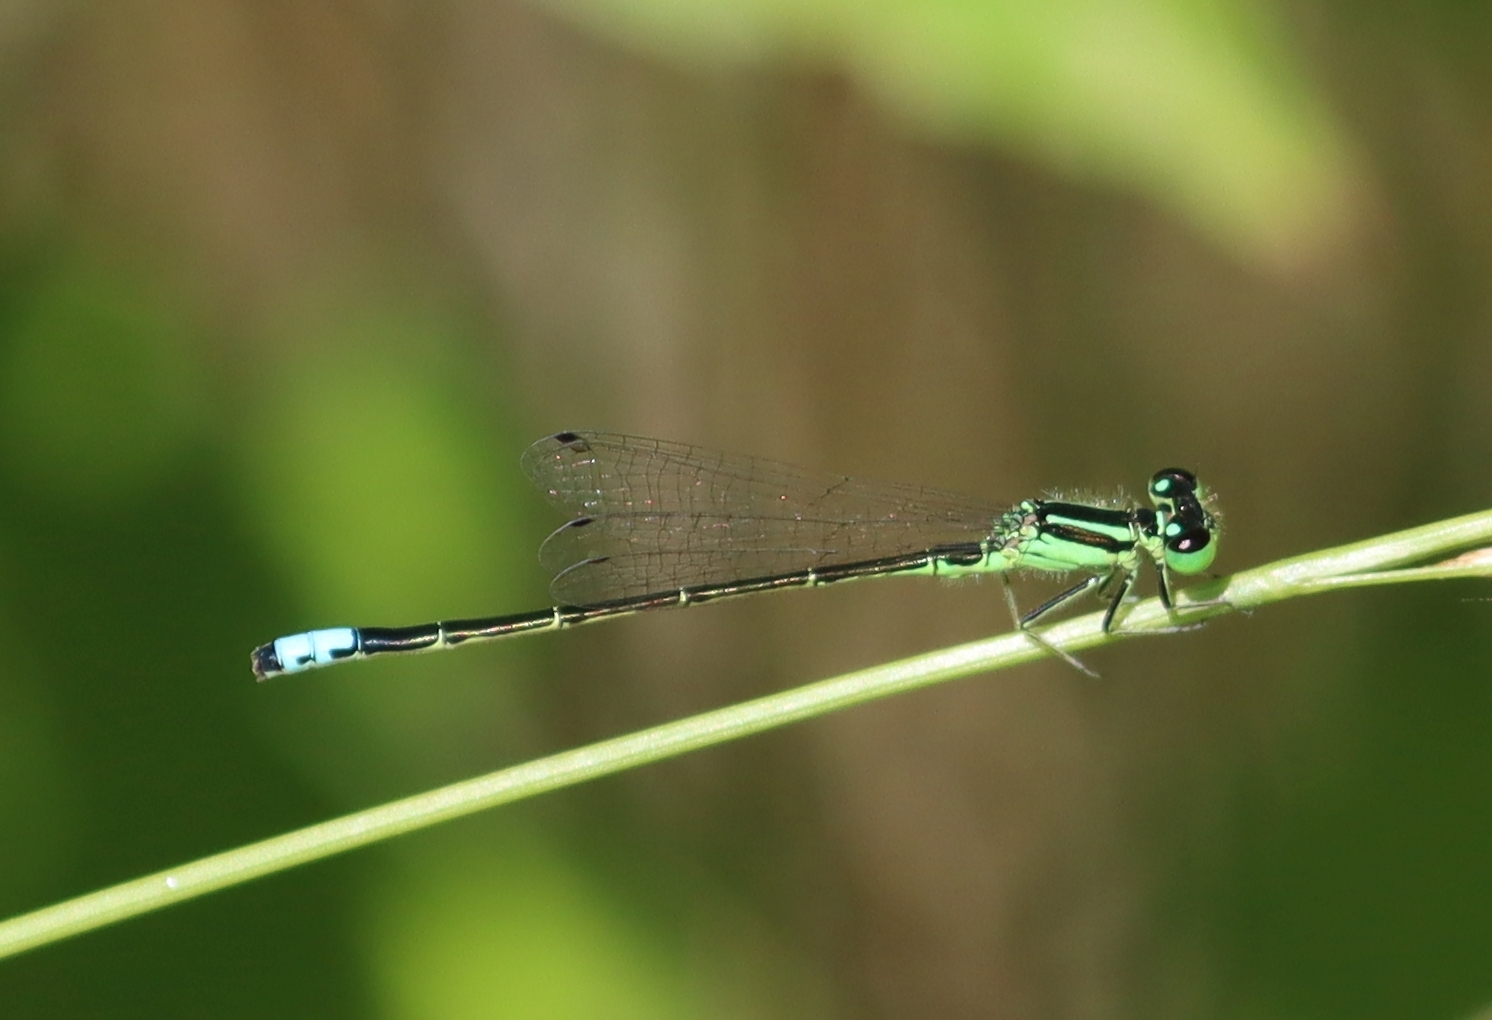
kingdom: Animalia
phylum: Arthropoda
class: Insecta
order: Odonata
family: Coenagrionidae
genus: Ischnura
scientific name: Ischnura verticalis
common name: Eastern forktail
